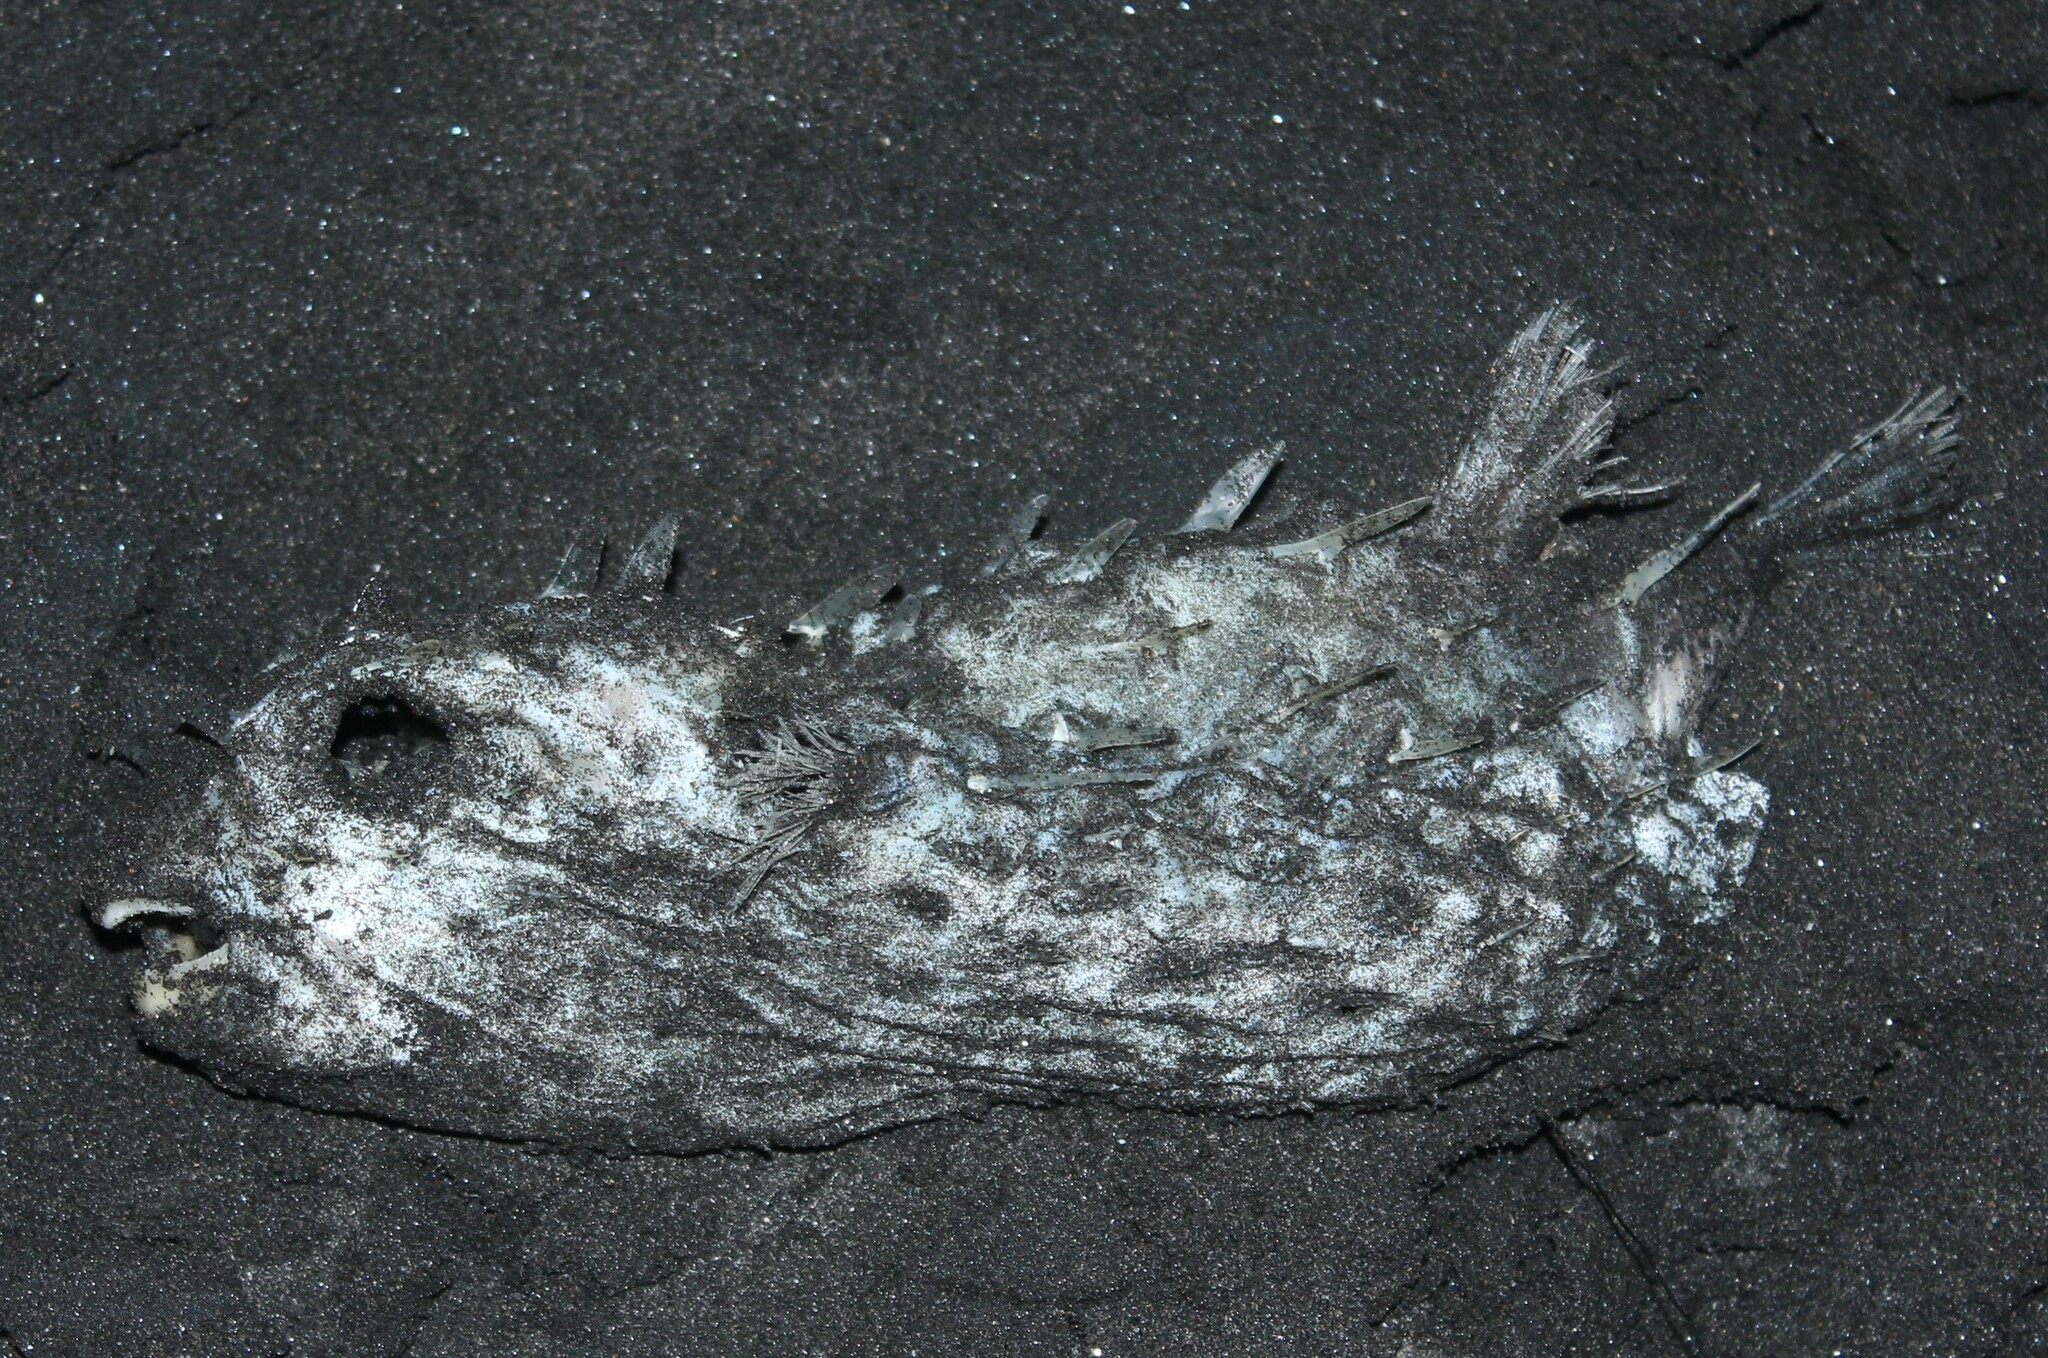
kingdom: Animalia
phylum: Chordata
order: Tetraodontiformes
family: Diodontidae
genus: Allomycterus
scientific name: Allomycterus pilatus
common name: No common name
